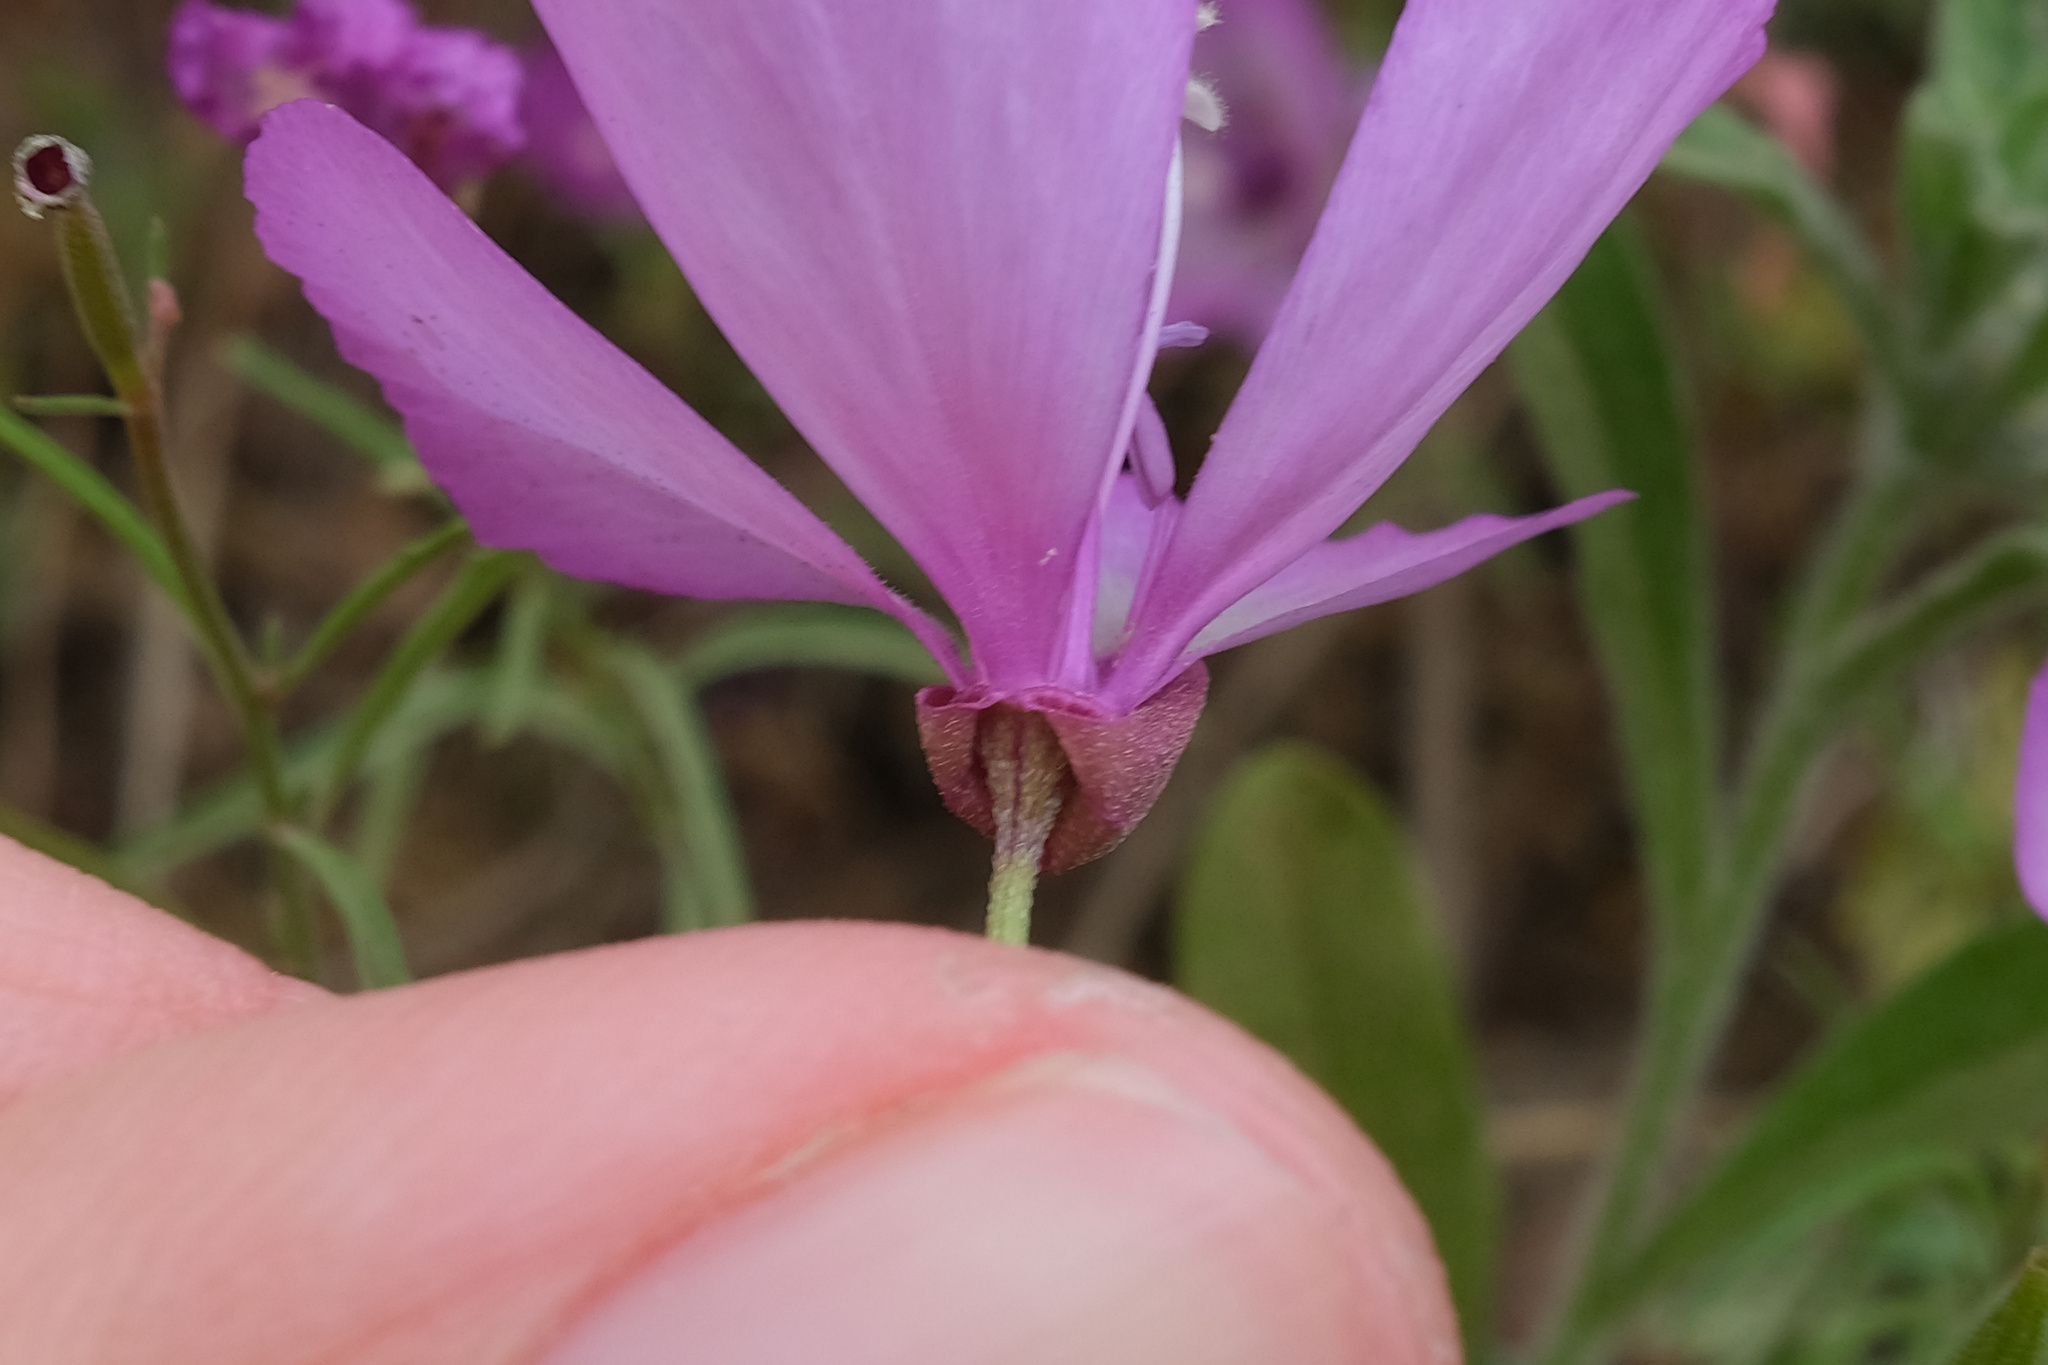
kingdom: Plantae
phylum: Tracheophyta
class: Magnoliopsida
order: Myrtales
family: Onagraceae
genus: Clarkia
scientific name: Clarkia cylindrica
